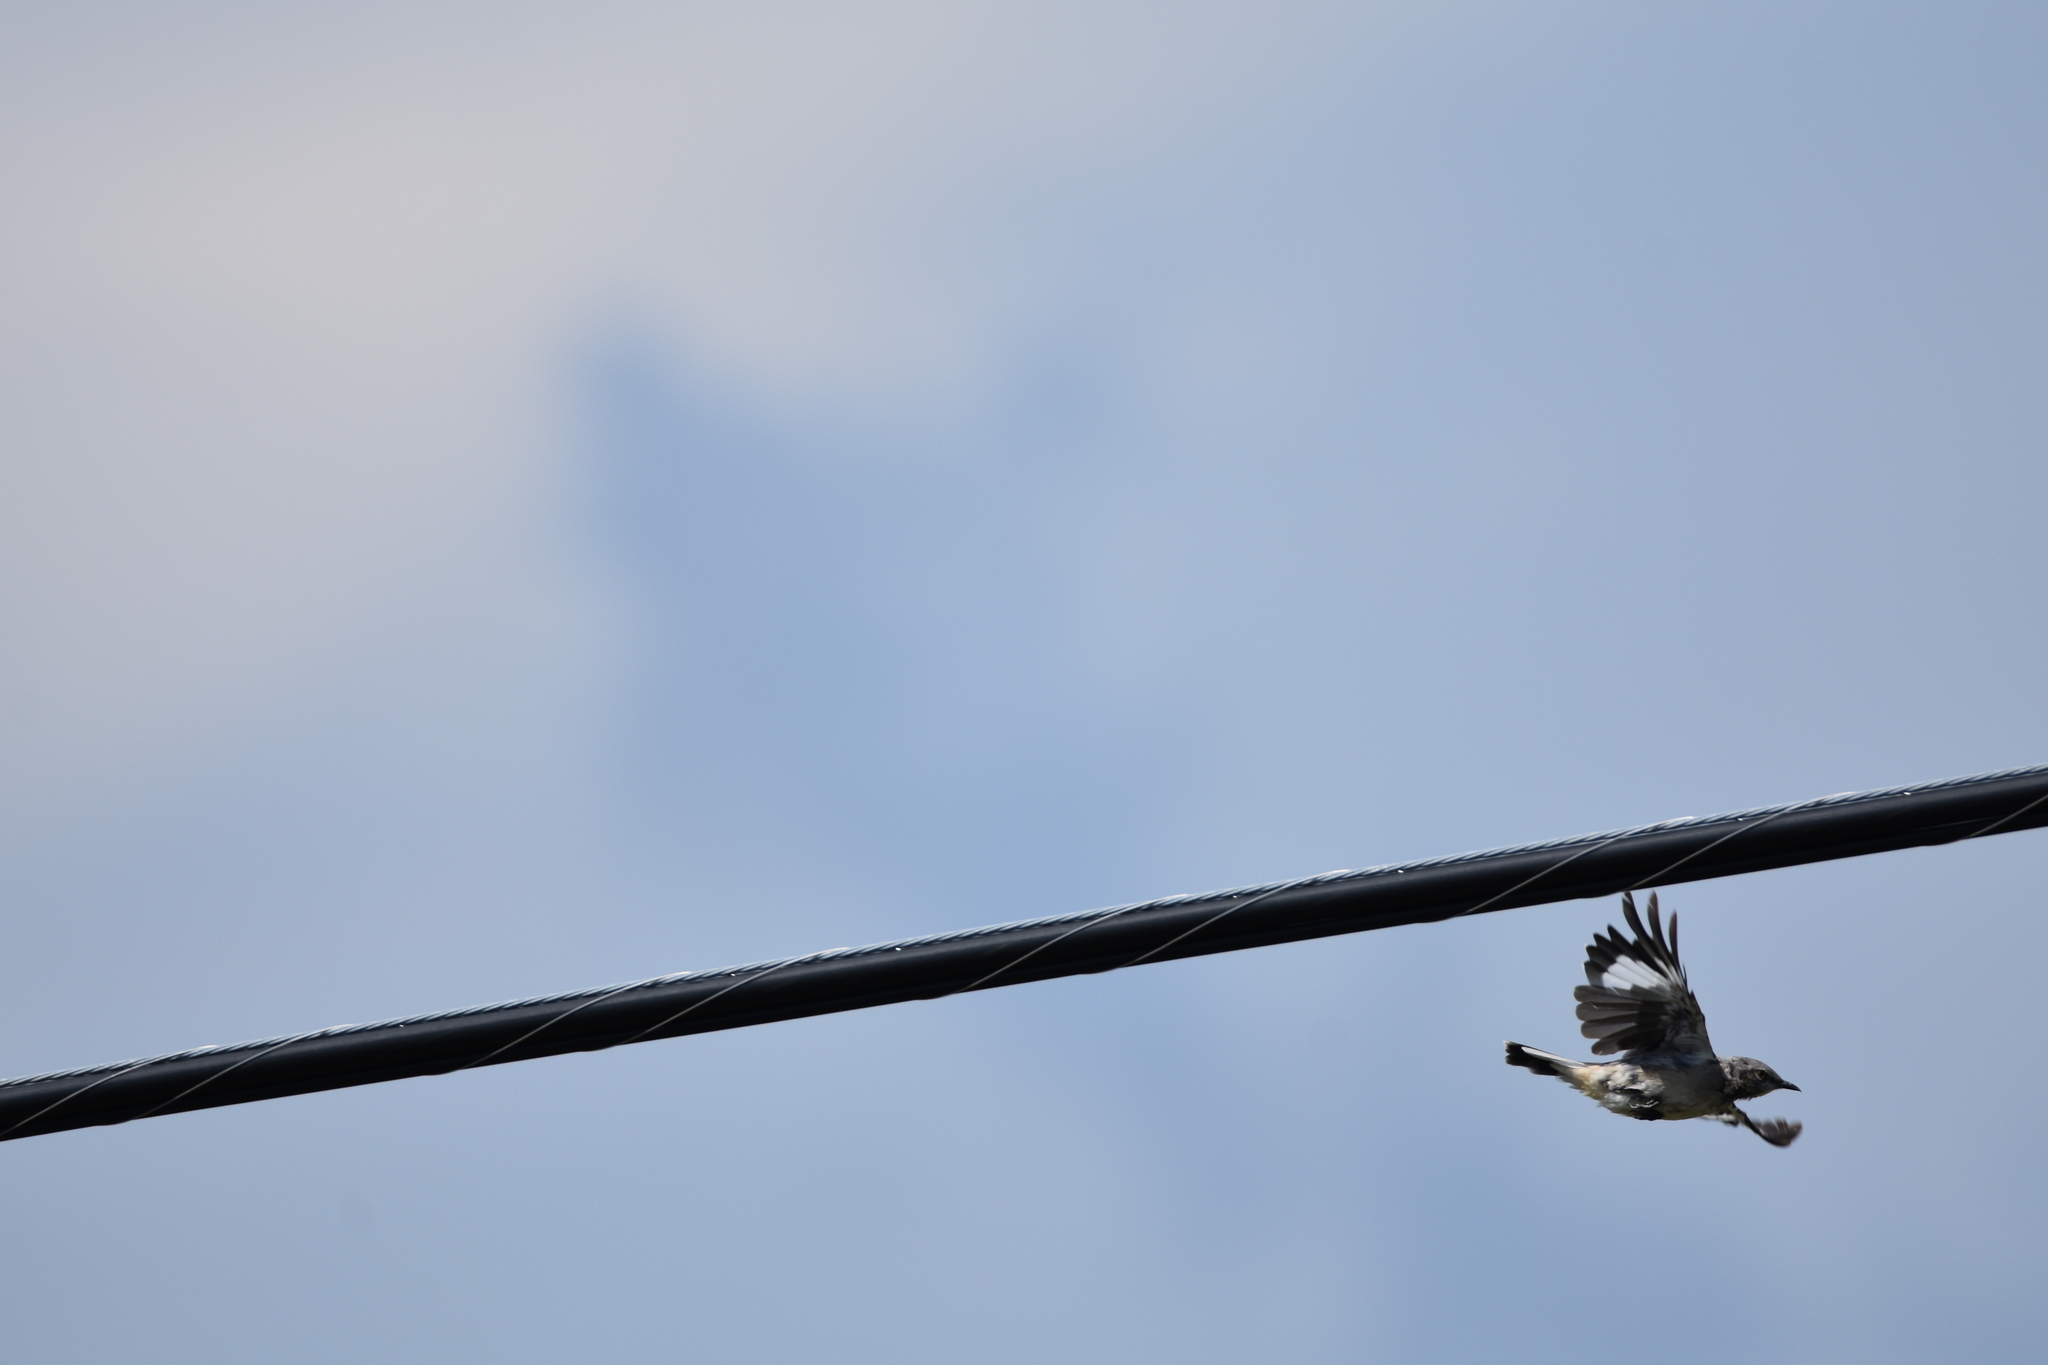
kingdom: Animalia
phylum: Chordata
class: Aves
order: Passeriformes
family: Mimidae
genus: Mimus
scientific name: Mimus polyglottos
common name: Northern mockingbird
